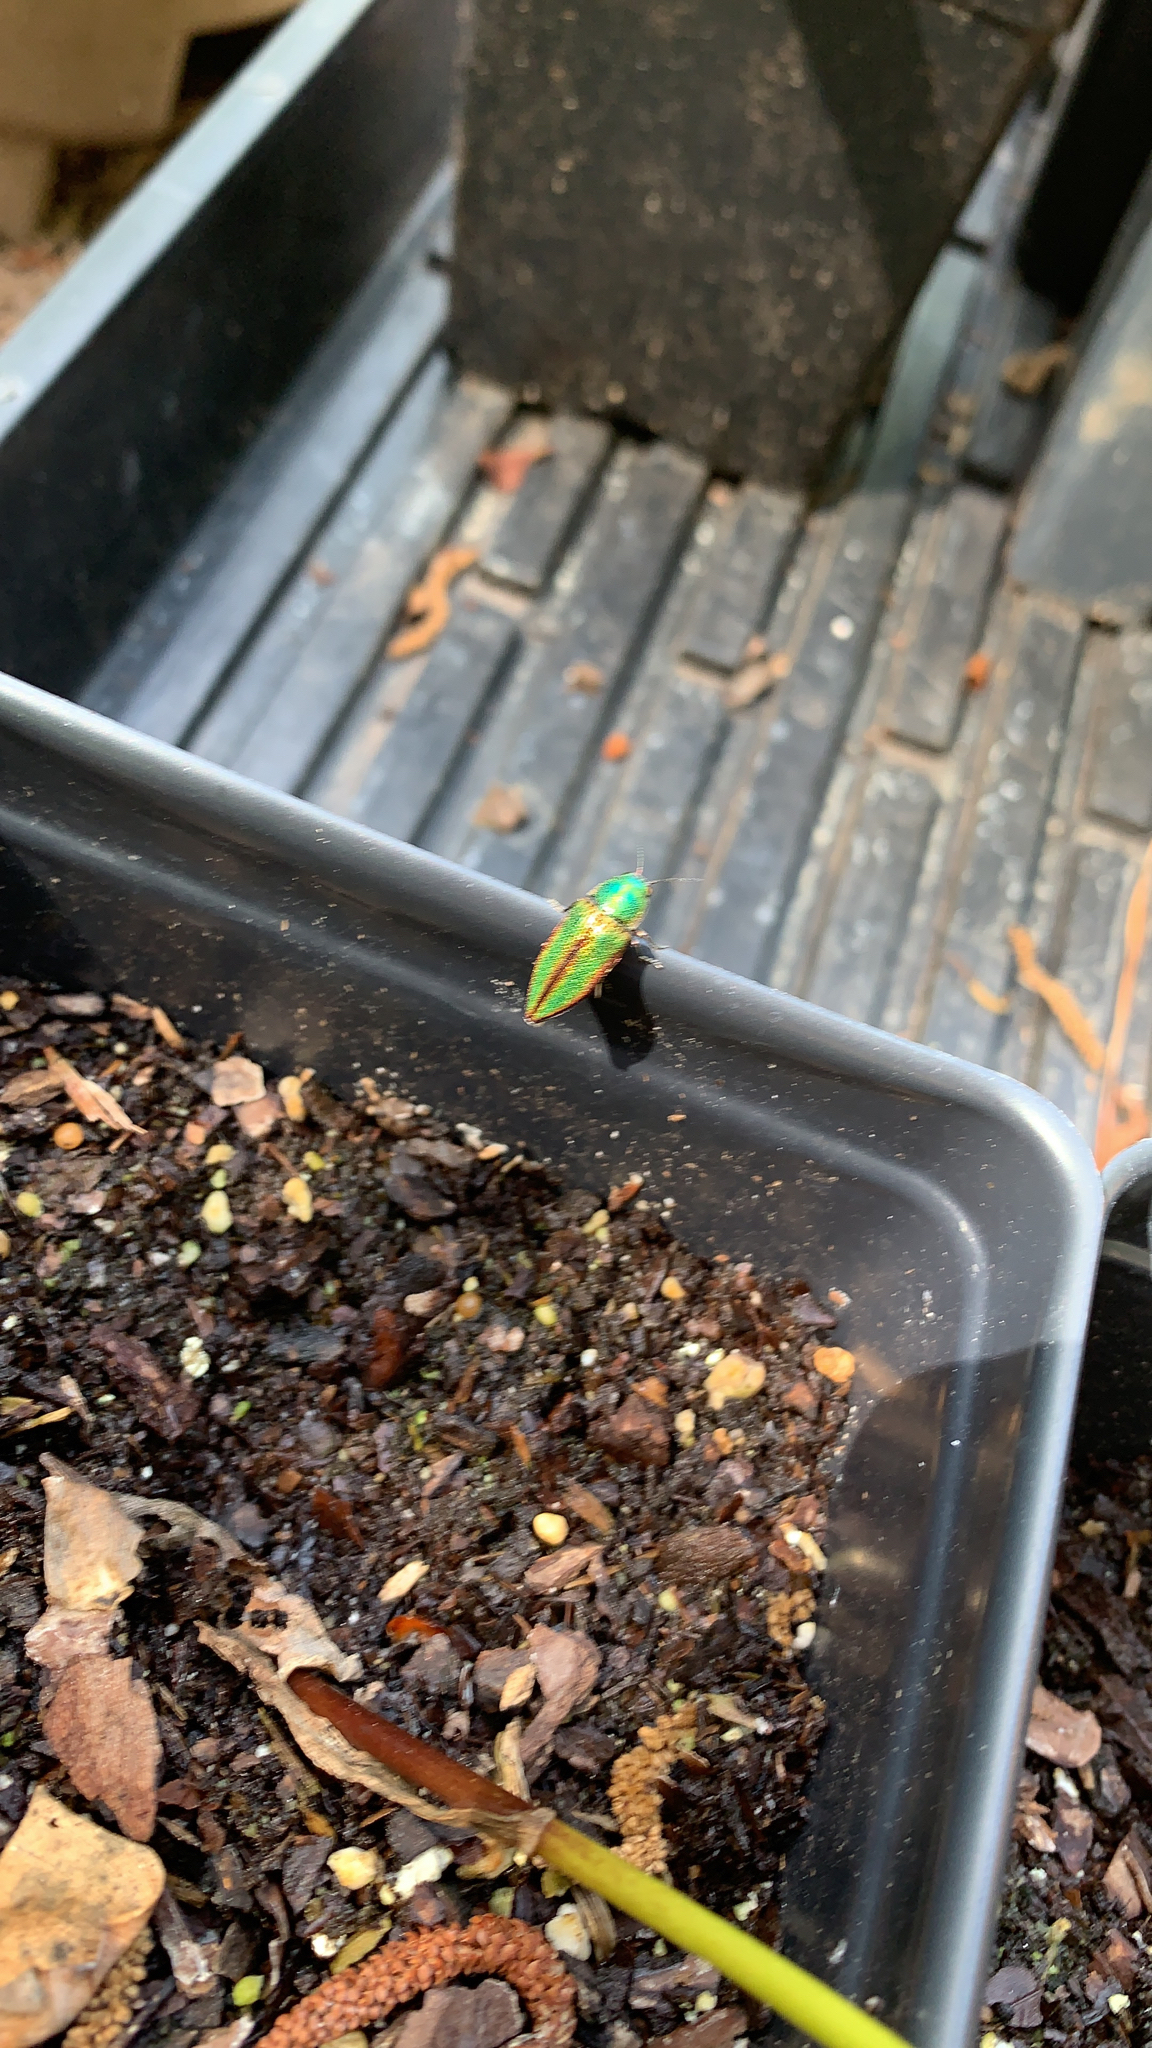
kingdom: Animalia
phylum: Arthropoda
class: Insecta
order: Coleoptera
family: Buprestidae
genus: Buprestis
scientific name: Buprestis salisburyensis
